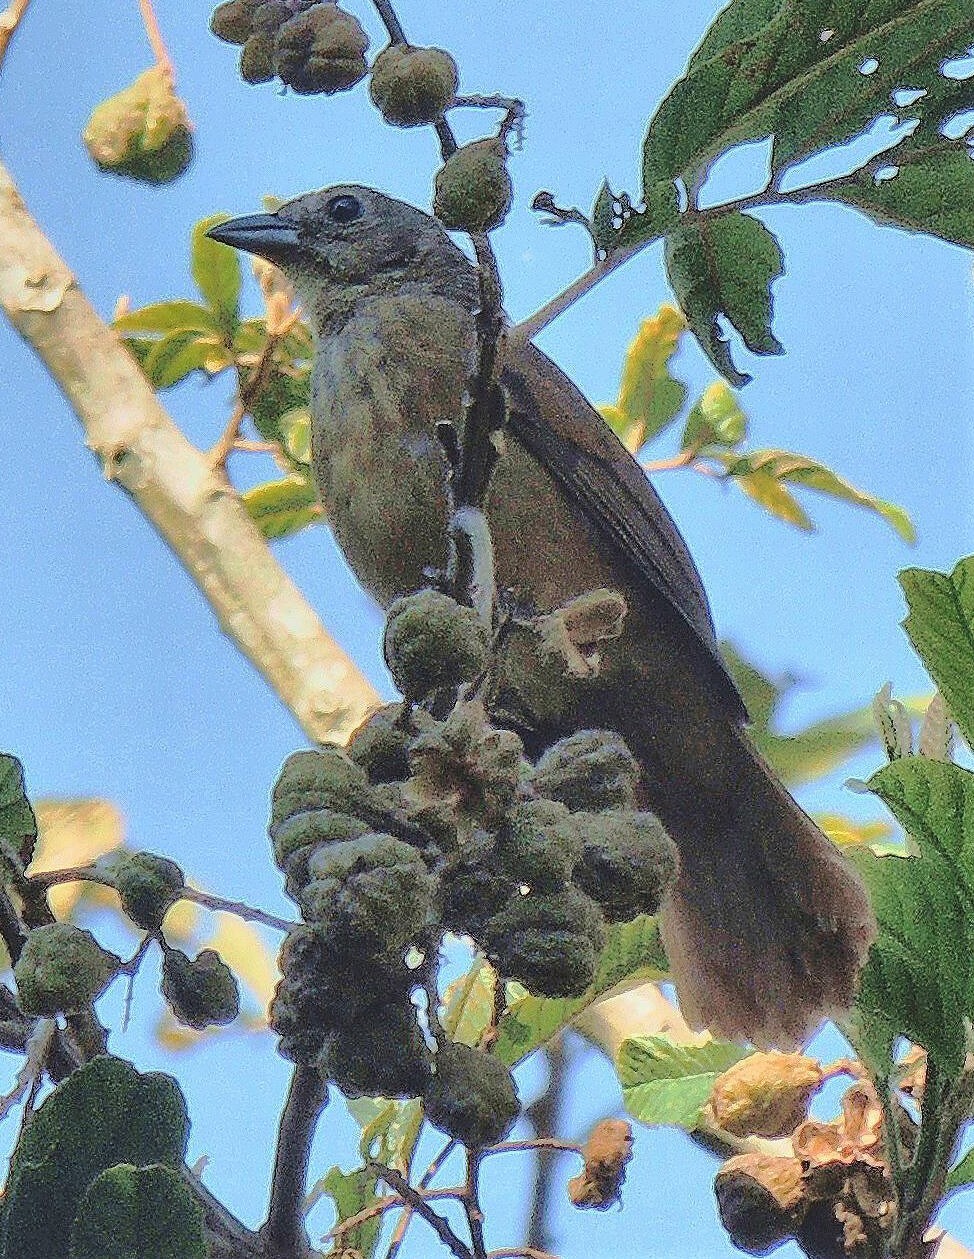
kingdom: Animalia
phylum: Chordata
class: Aves
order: Passeriformes
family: Thraupidae
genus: Tachyphonus
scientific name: Tachyphonus coronatus
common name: Ruby-crowned tanager
